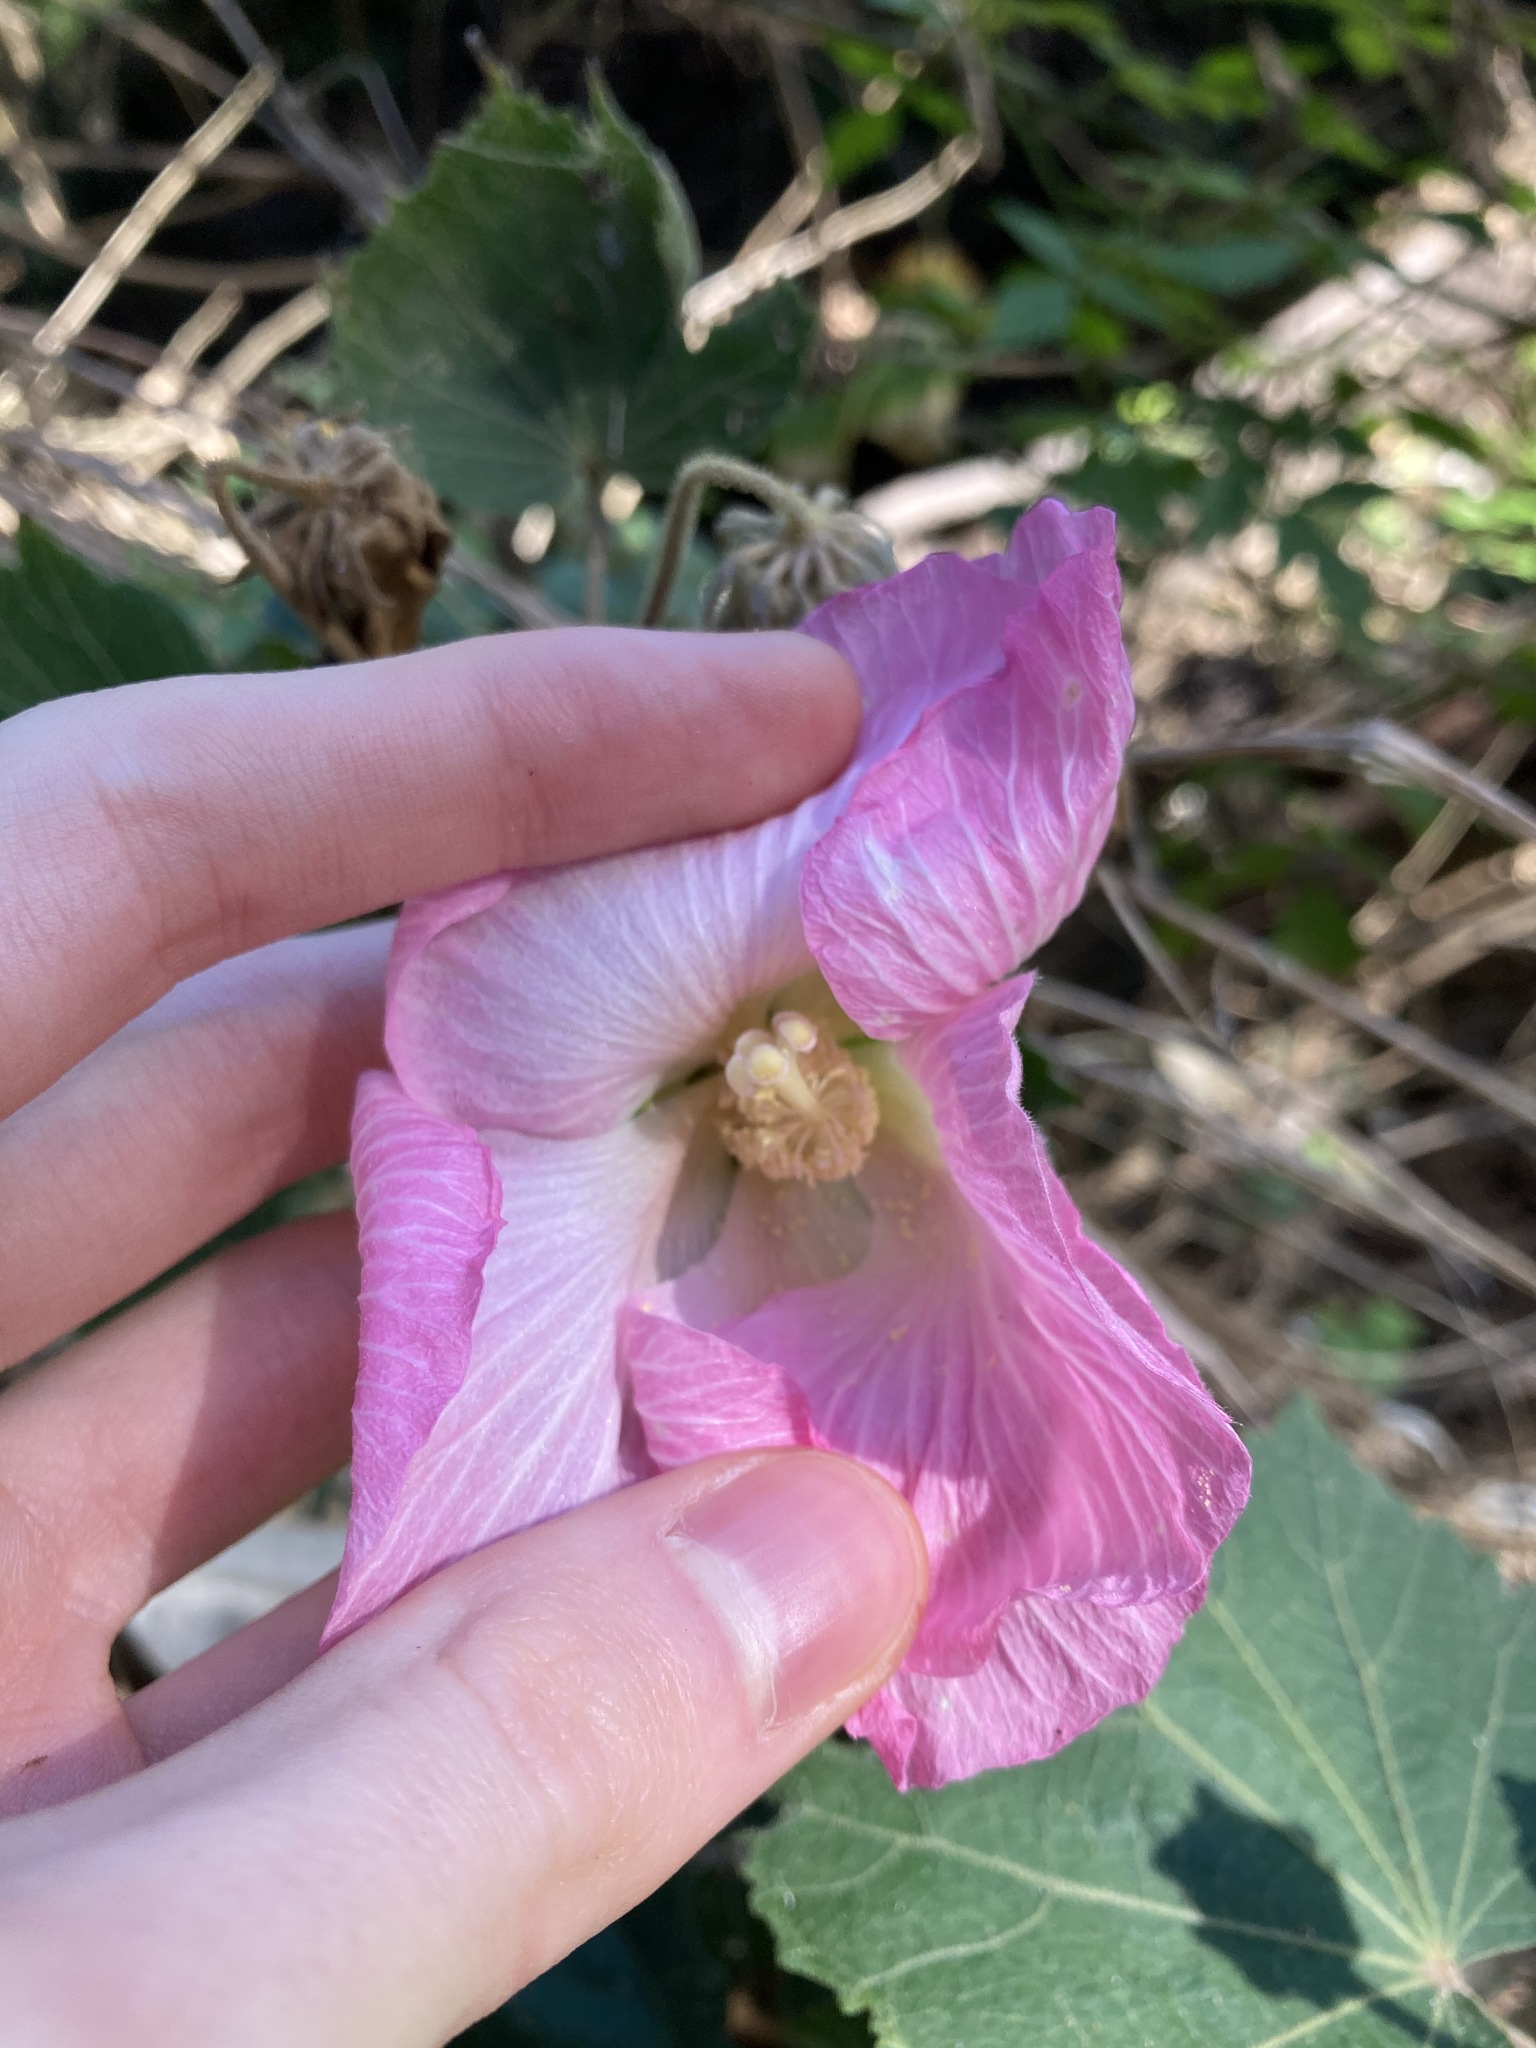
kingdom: Plantae
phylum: Tracheophyta
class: Magnoliopsida
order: Malvales
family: Malvaceae
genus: Hibiscus
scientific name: Hibiscus mutabilis
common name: Dixie rosemallow
